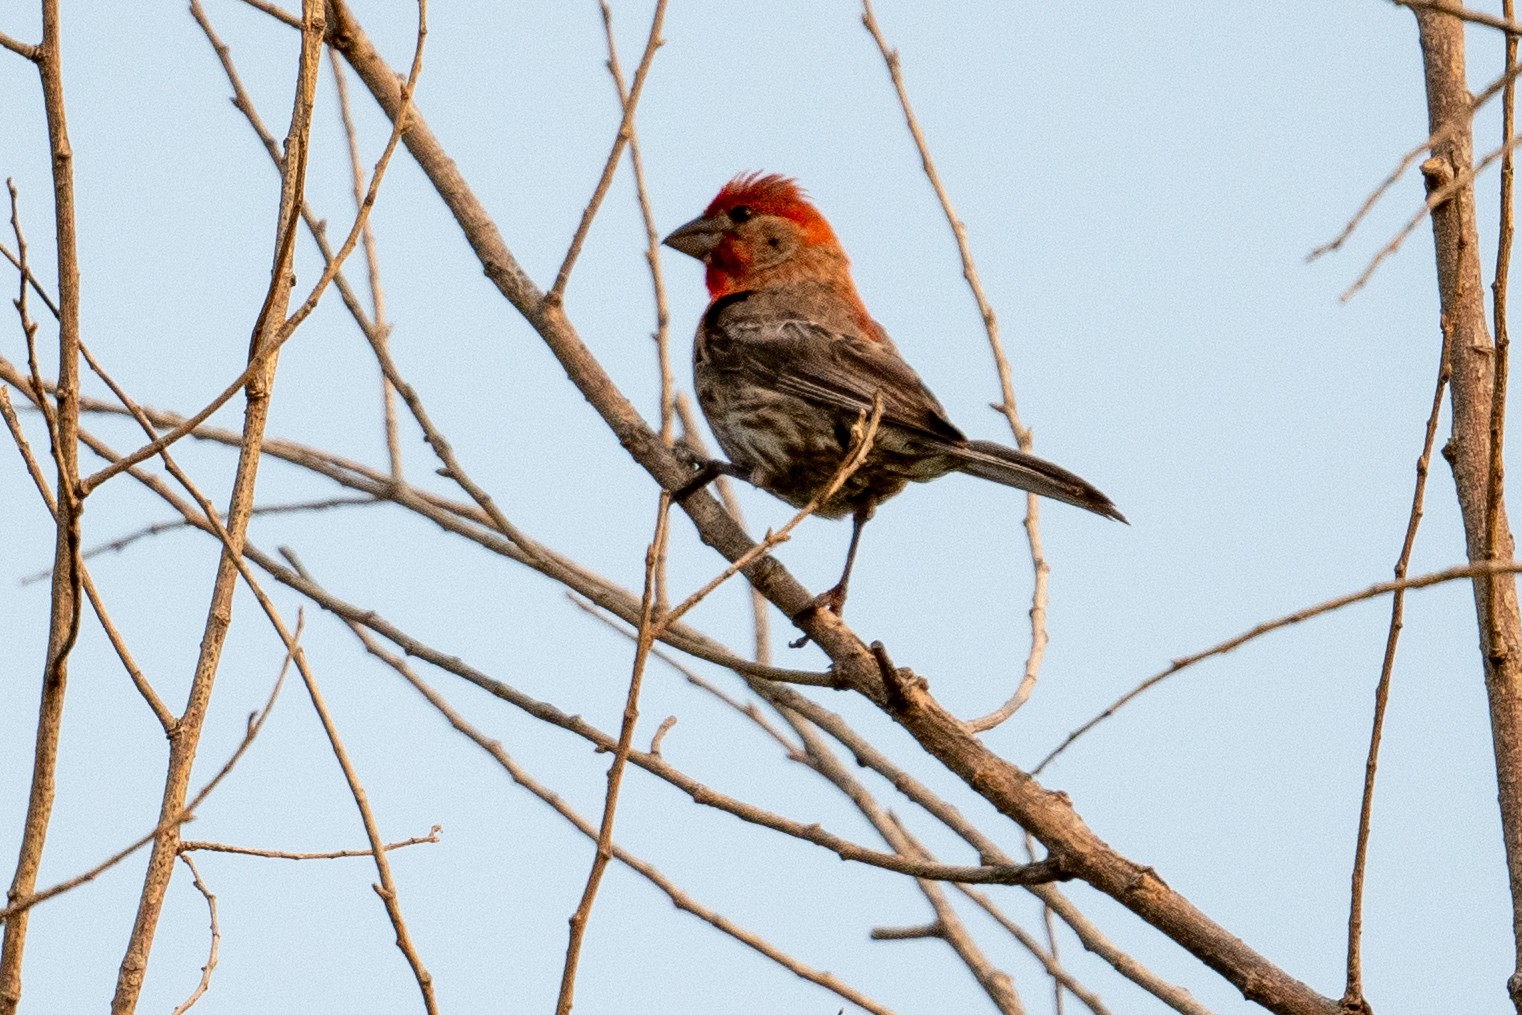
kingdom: Animalia
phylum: Chordata
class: Aves
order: Passeriformes
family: Fringillidae
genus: Haemorhous
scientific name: Haemorhous mexicanus
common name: House finch
